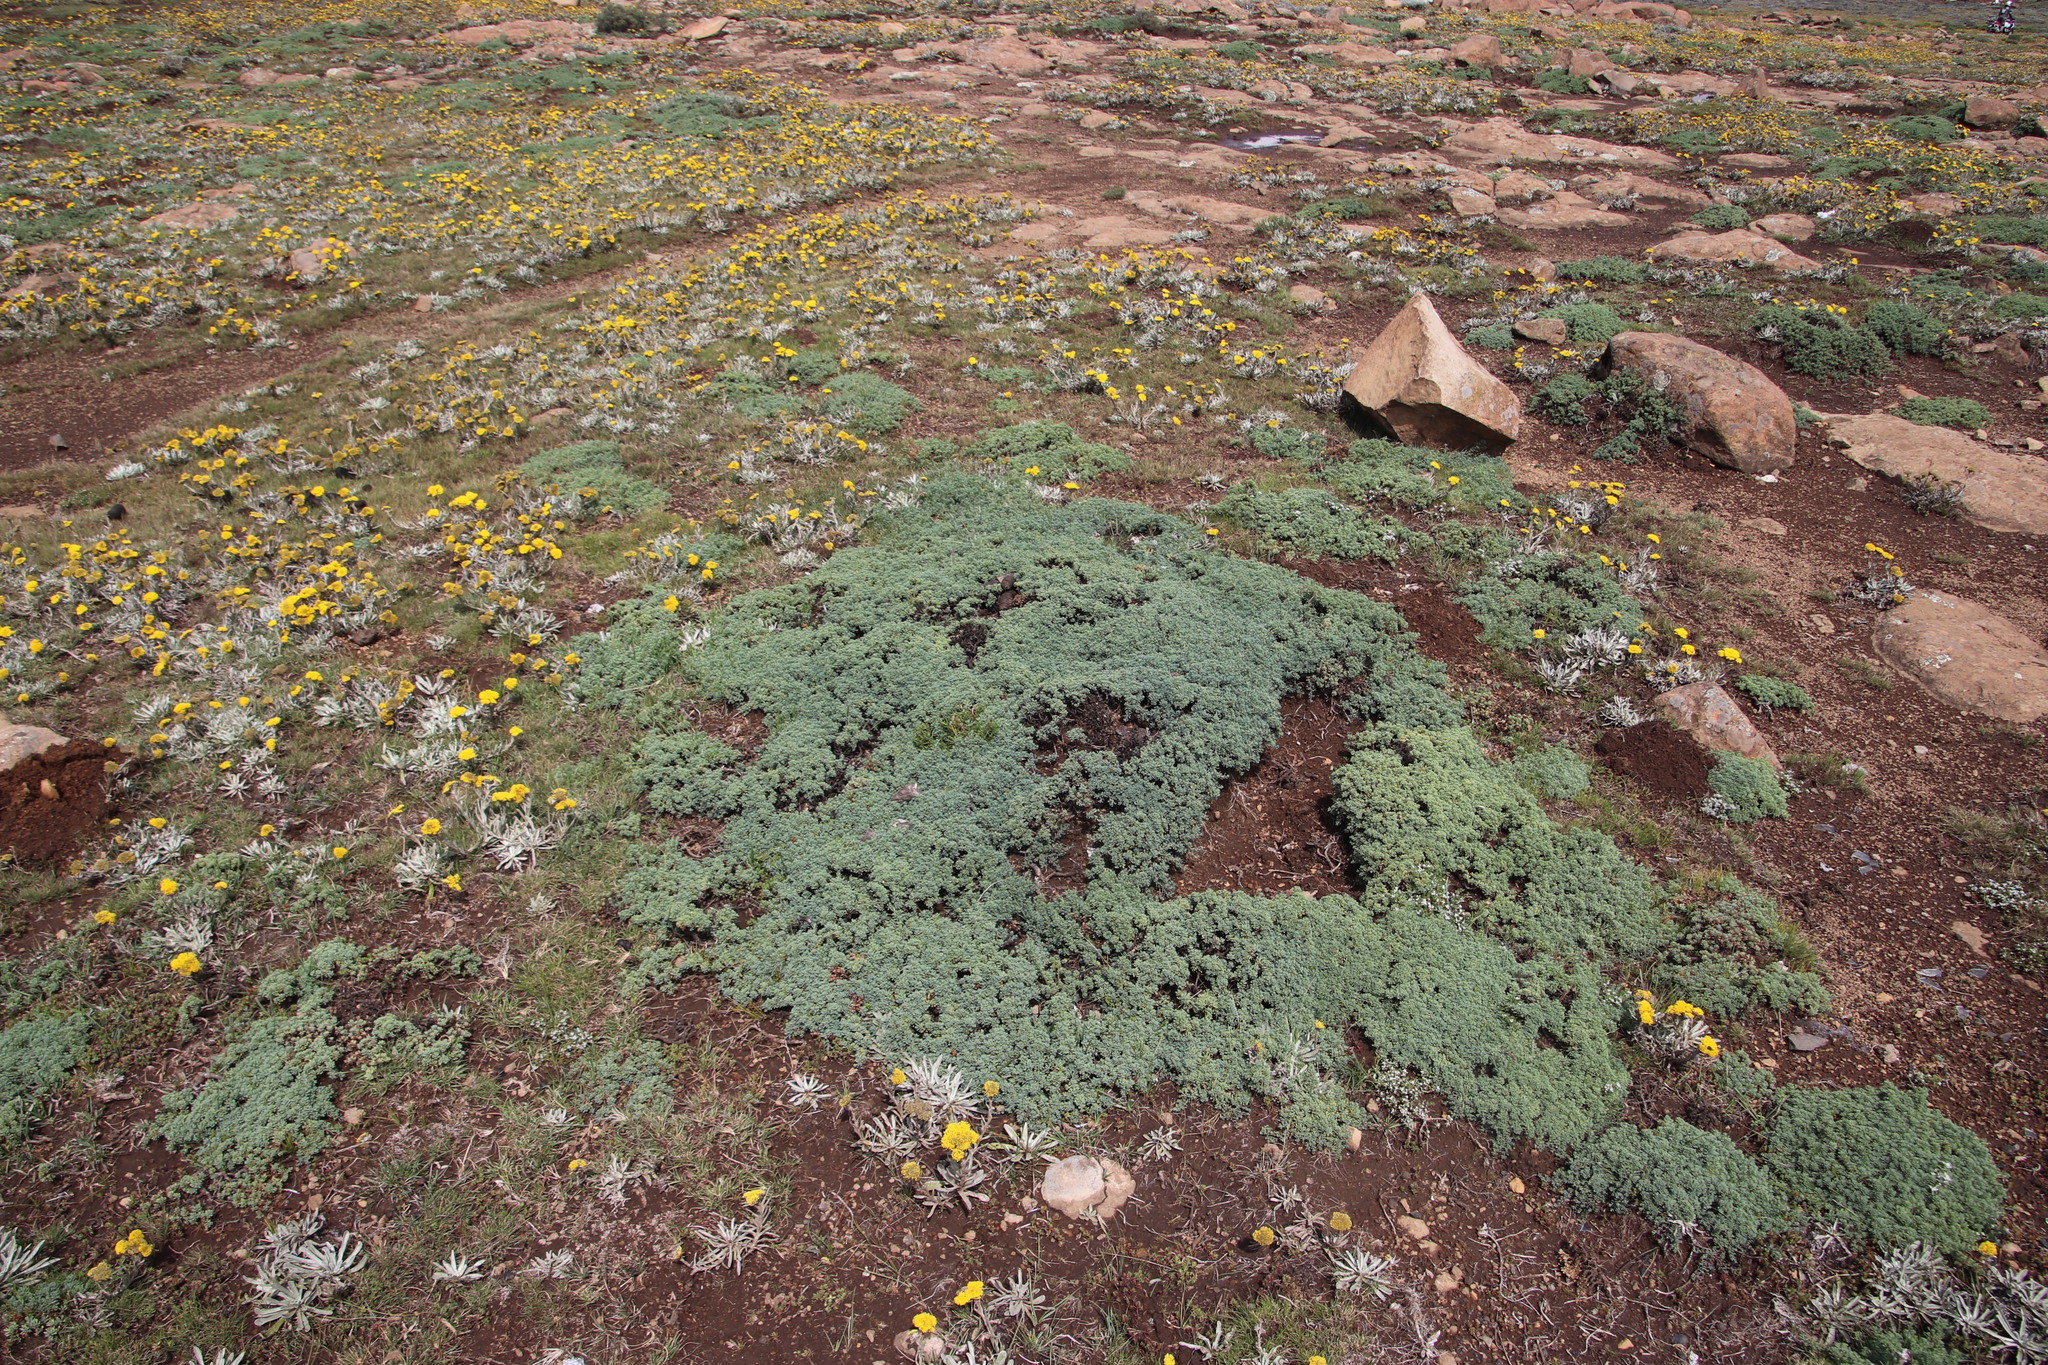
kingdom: Plantae
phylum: Tracheophyta
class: Magnoliopsida
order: Asterales
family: Asteraceae
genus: Euryops
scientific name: Euryops decumbens
